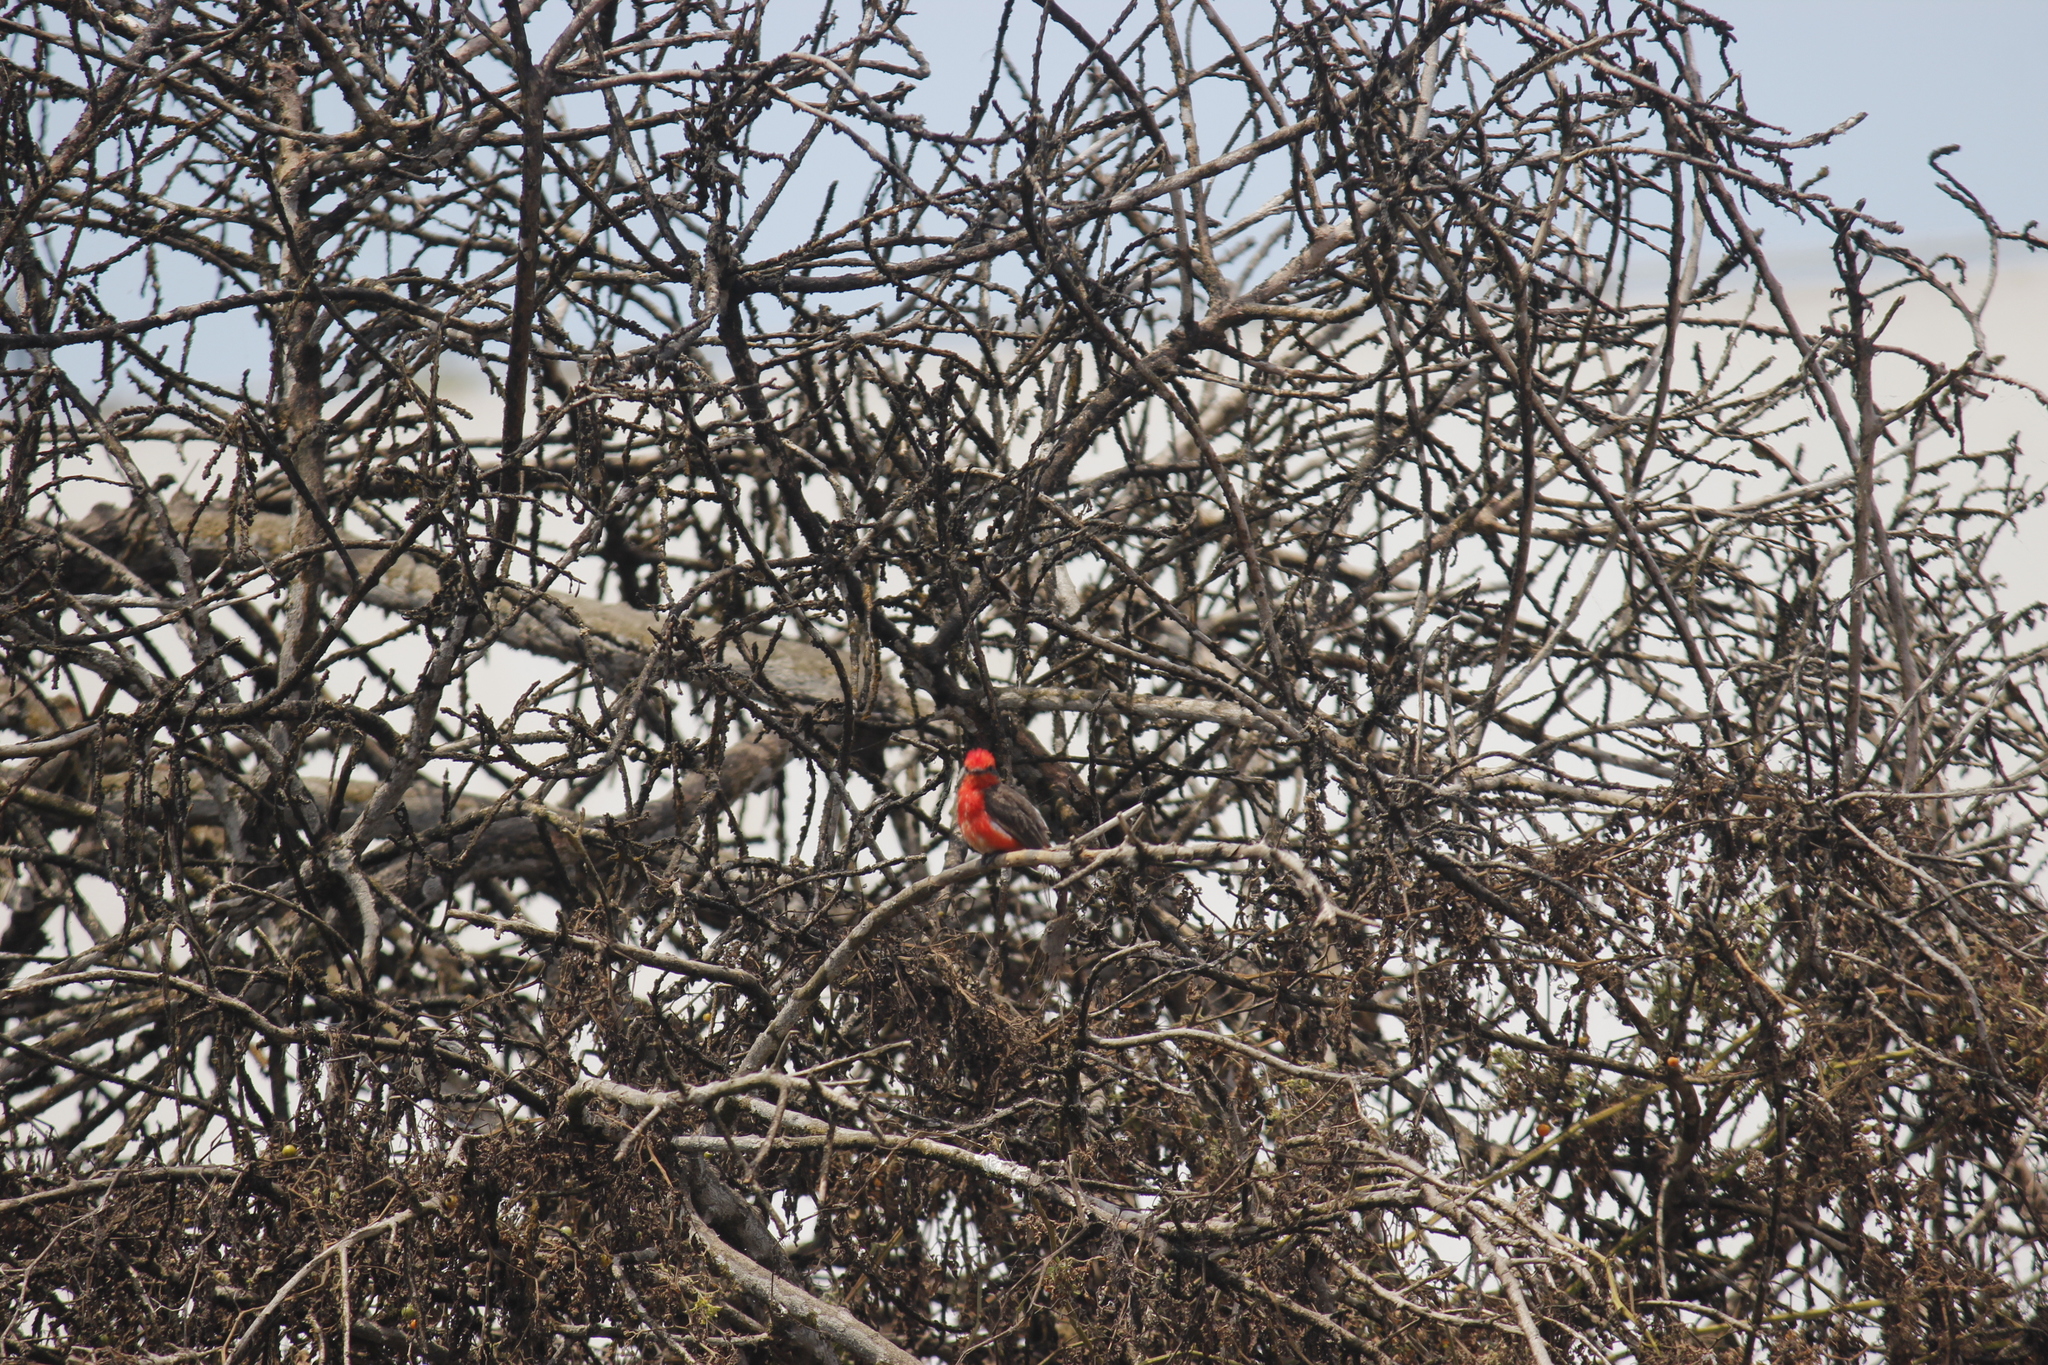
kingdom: Animalia
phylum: Chordata
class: Aves
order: Passeriformes
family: Tyrannidae
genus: Pyrocephalus
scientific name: Pyrocephalus rubinus
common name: Vermilion flycatcher
